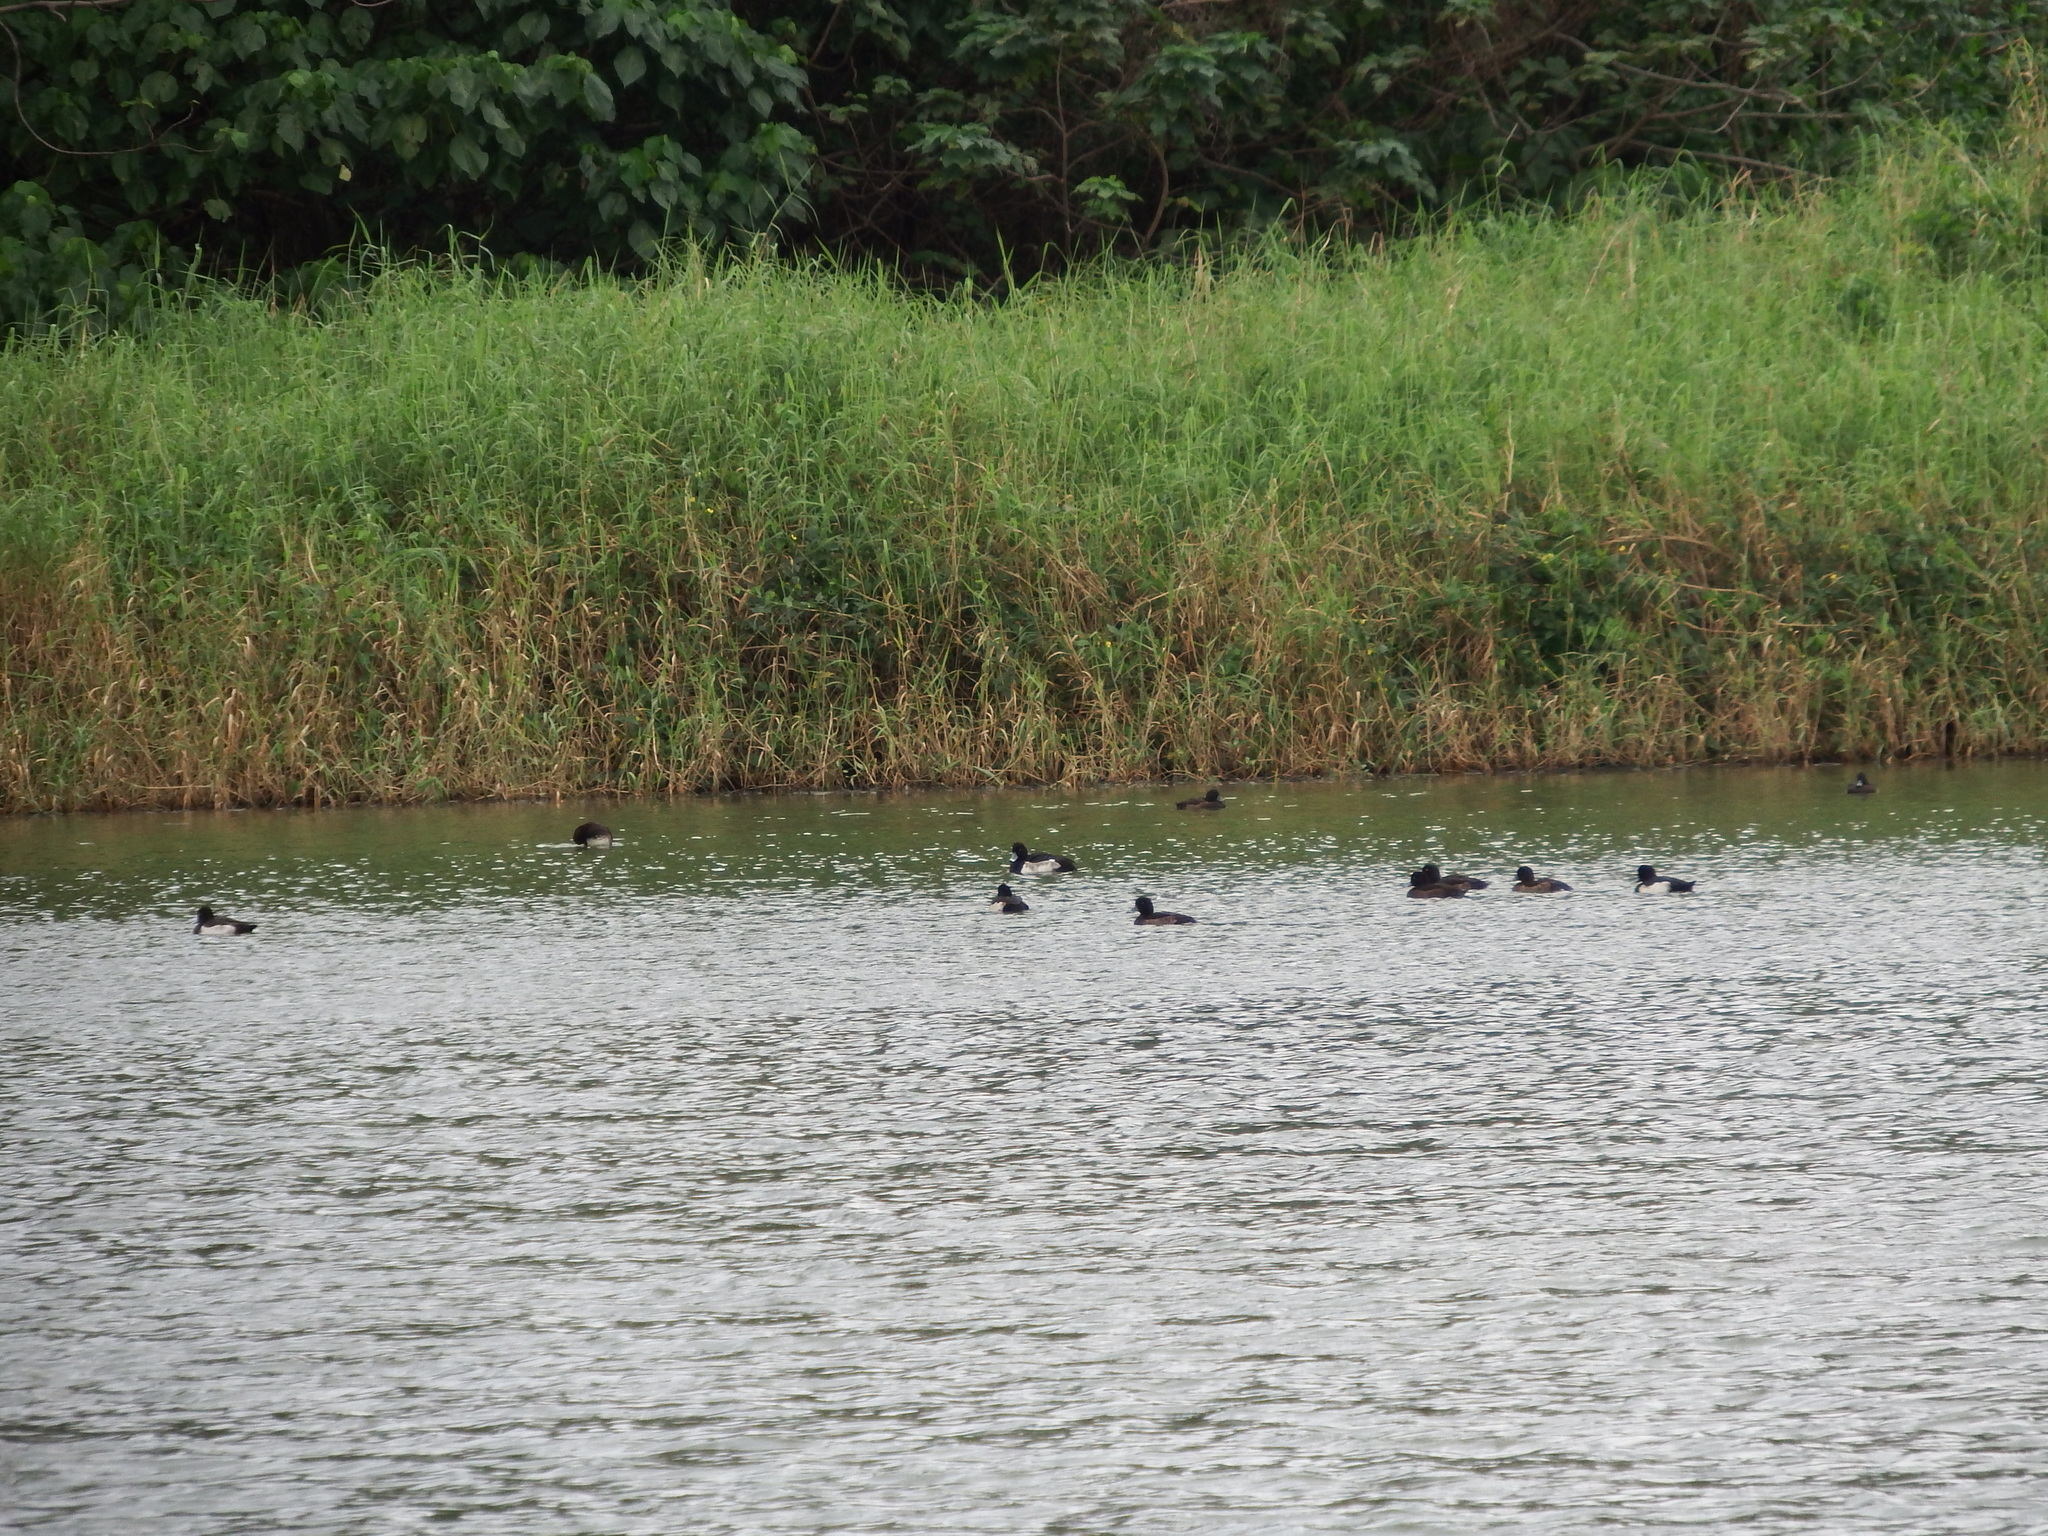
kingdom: Animalia
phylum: Chordata
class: Aves
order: Anseriformes
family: Anatidae
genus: Aythya
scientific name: Aythya fuligula
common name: Tufted duck
